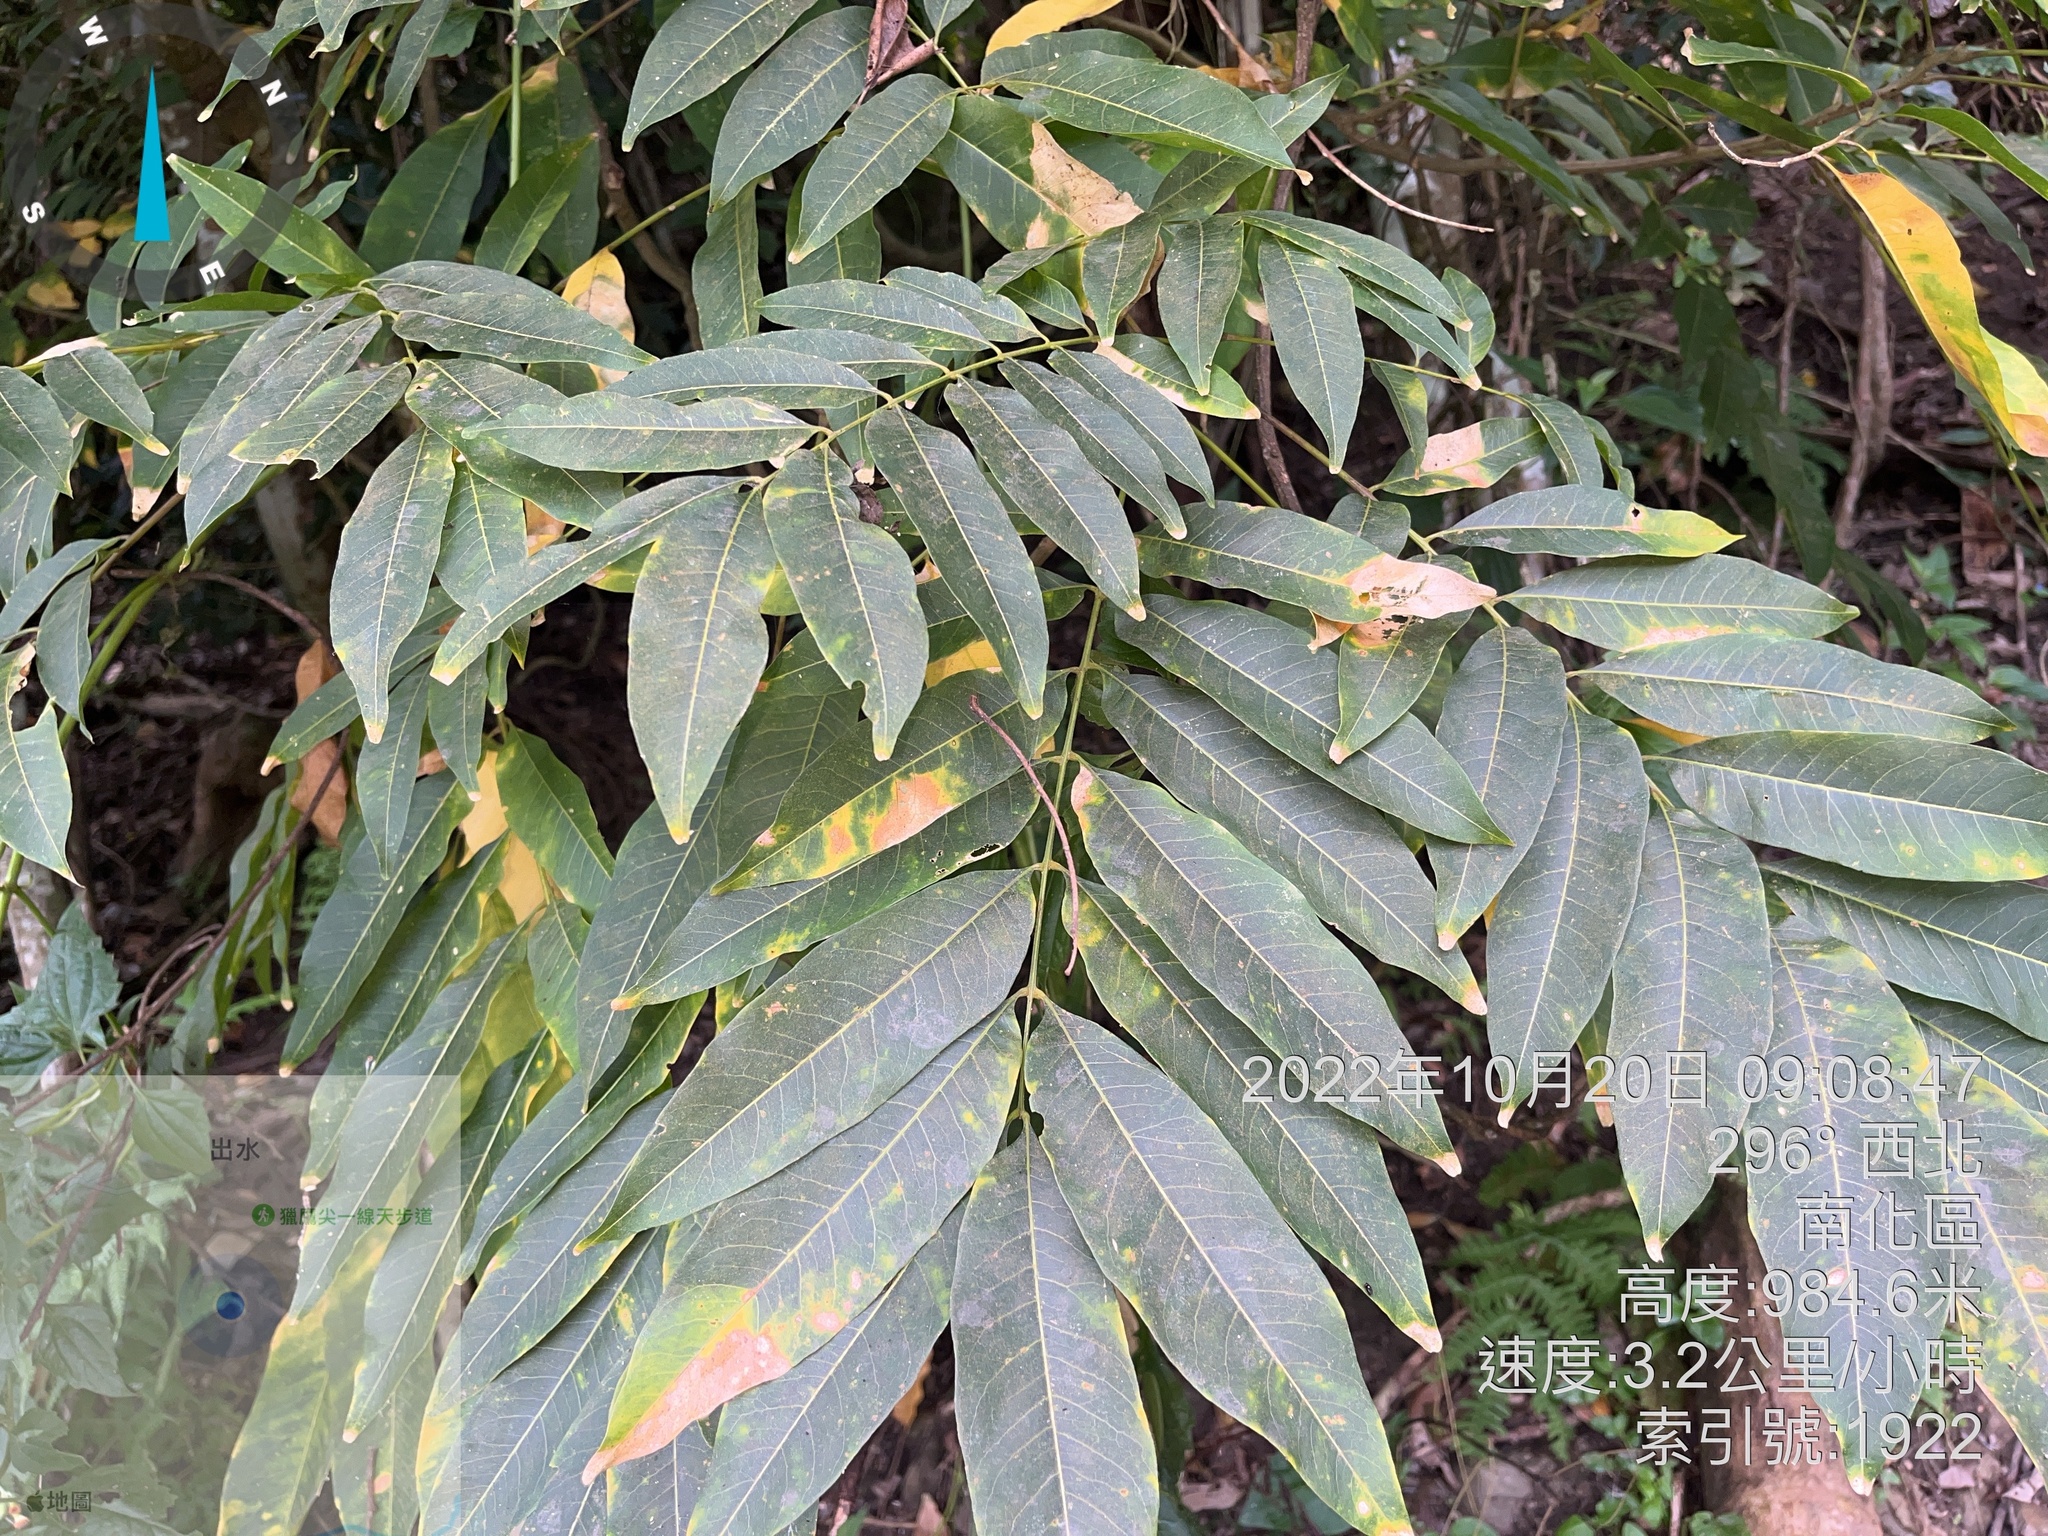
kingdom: Plantae
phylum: Tracheophyta
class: Magnoliopsida
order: Sapindales
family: Sapindaceae
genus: Sapindus
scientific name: Sapindus mukorossi
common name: Chinese soapberry
